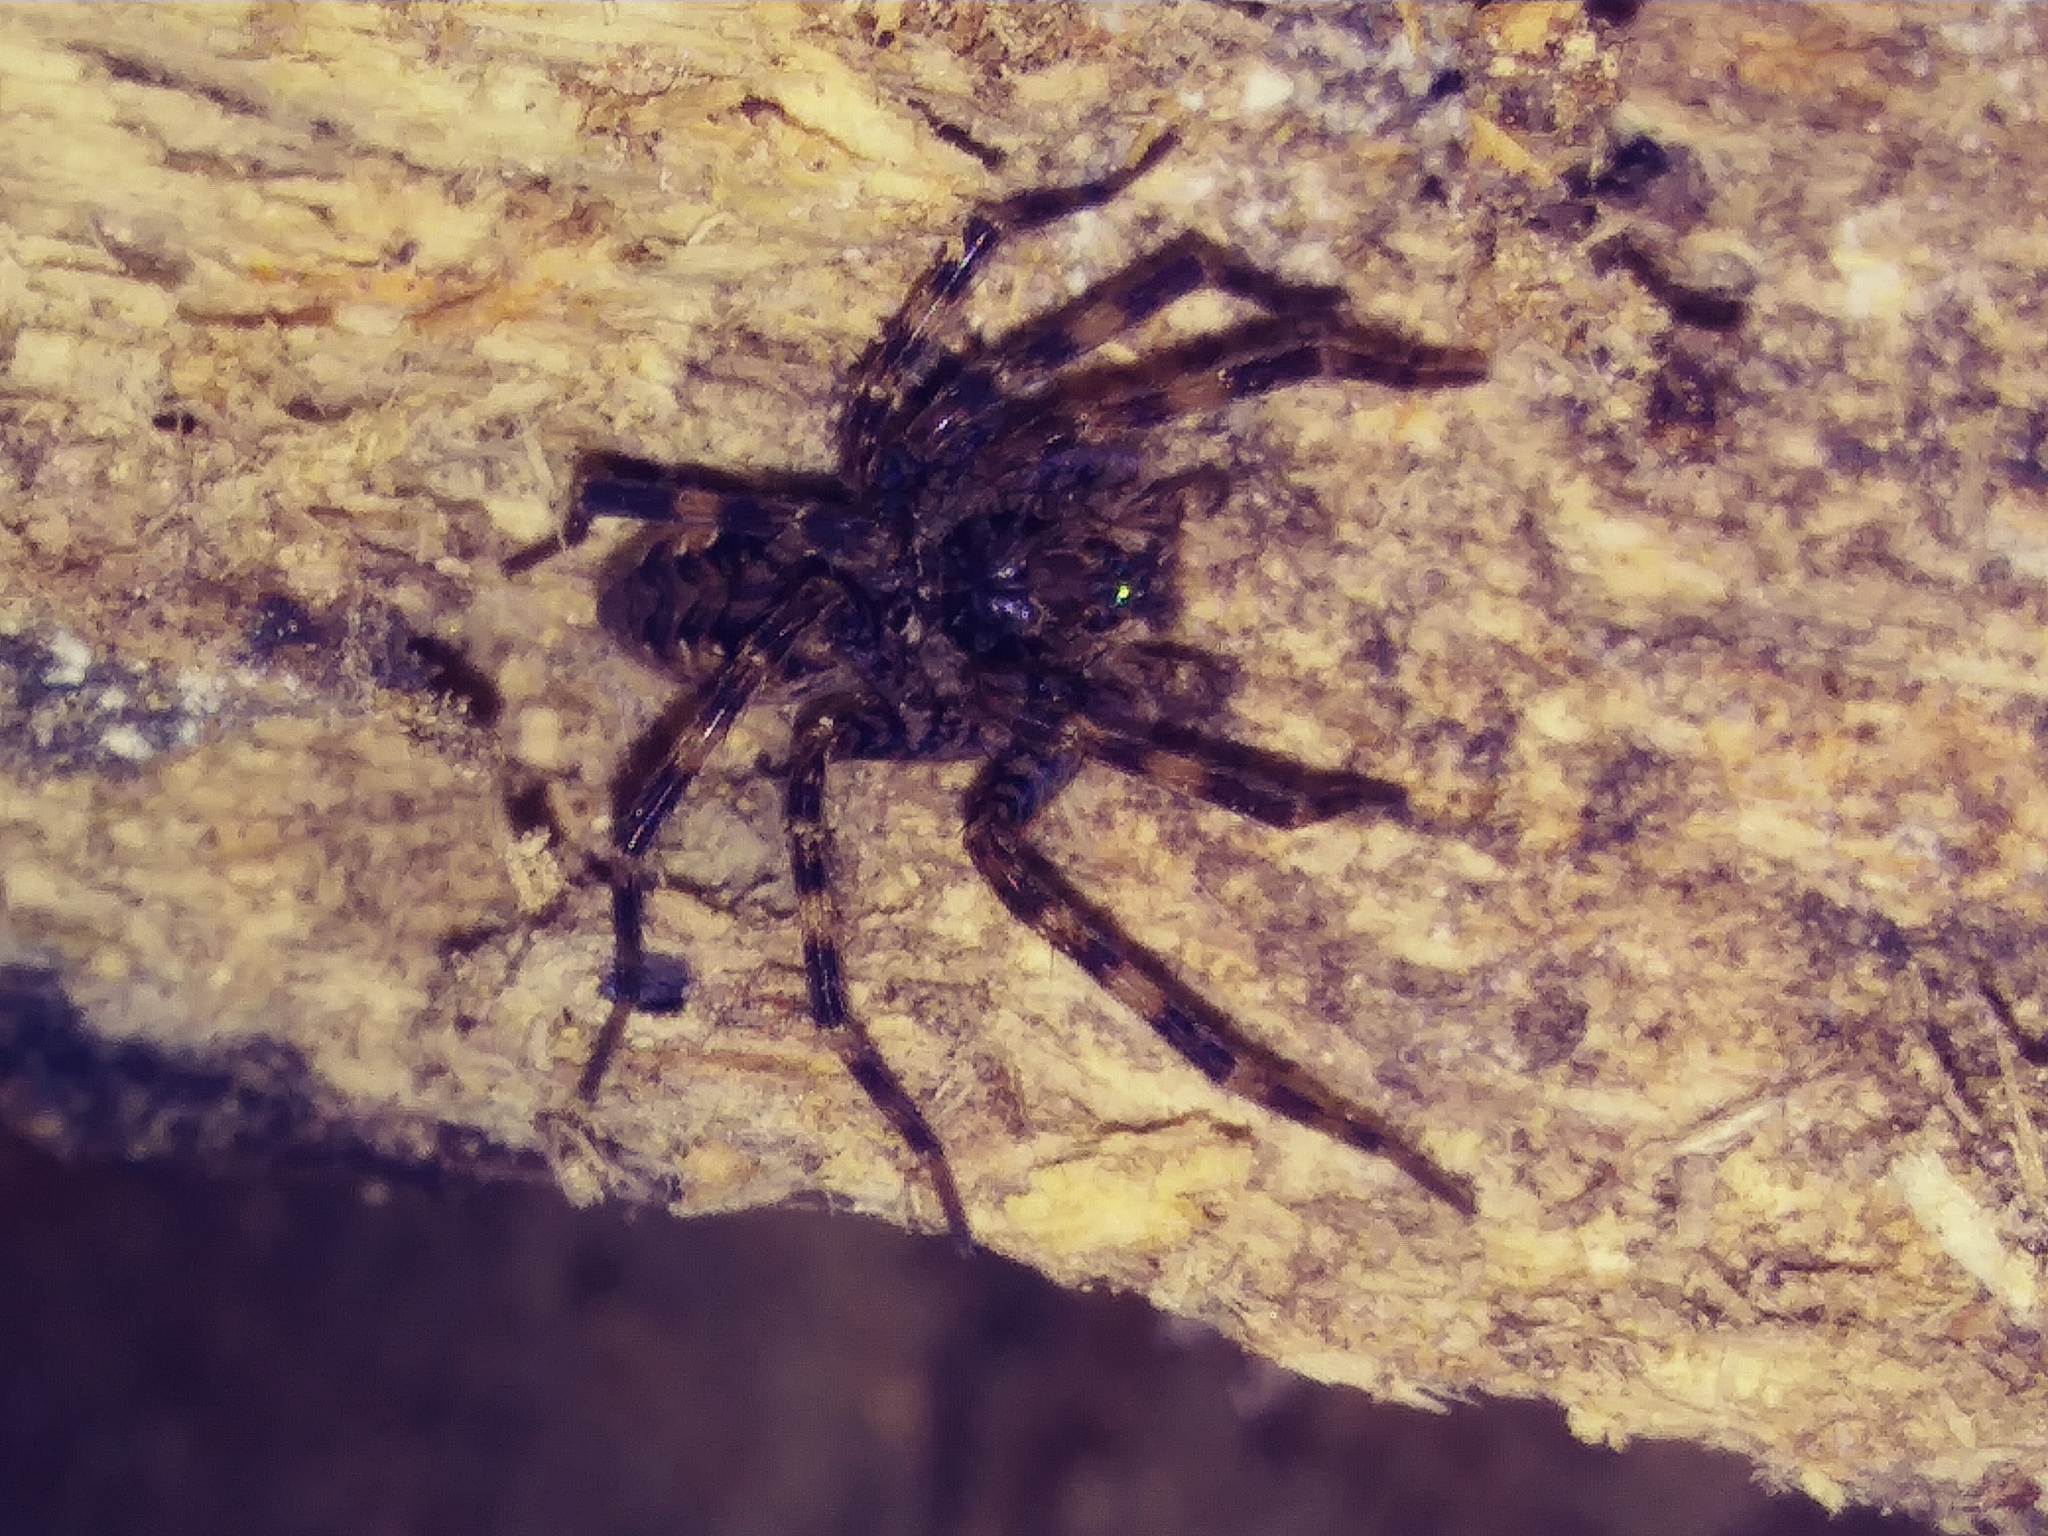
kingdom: Animalia
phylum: Arthropoda
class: Arachnida
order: Araneae
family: Pisauridae
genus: Dolomedes
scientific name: Dolomedes tenebrosus
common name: Dark fishing spider
